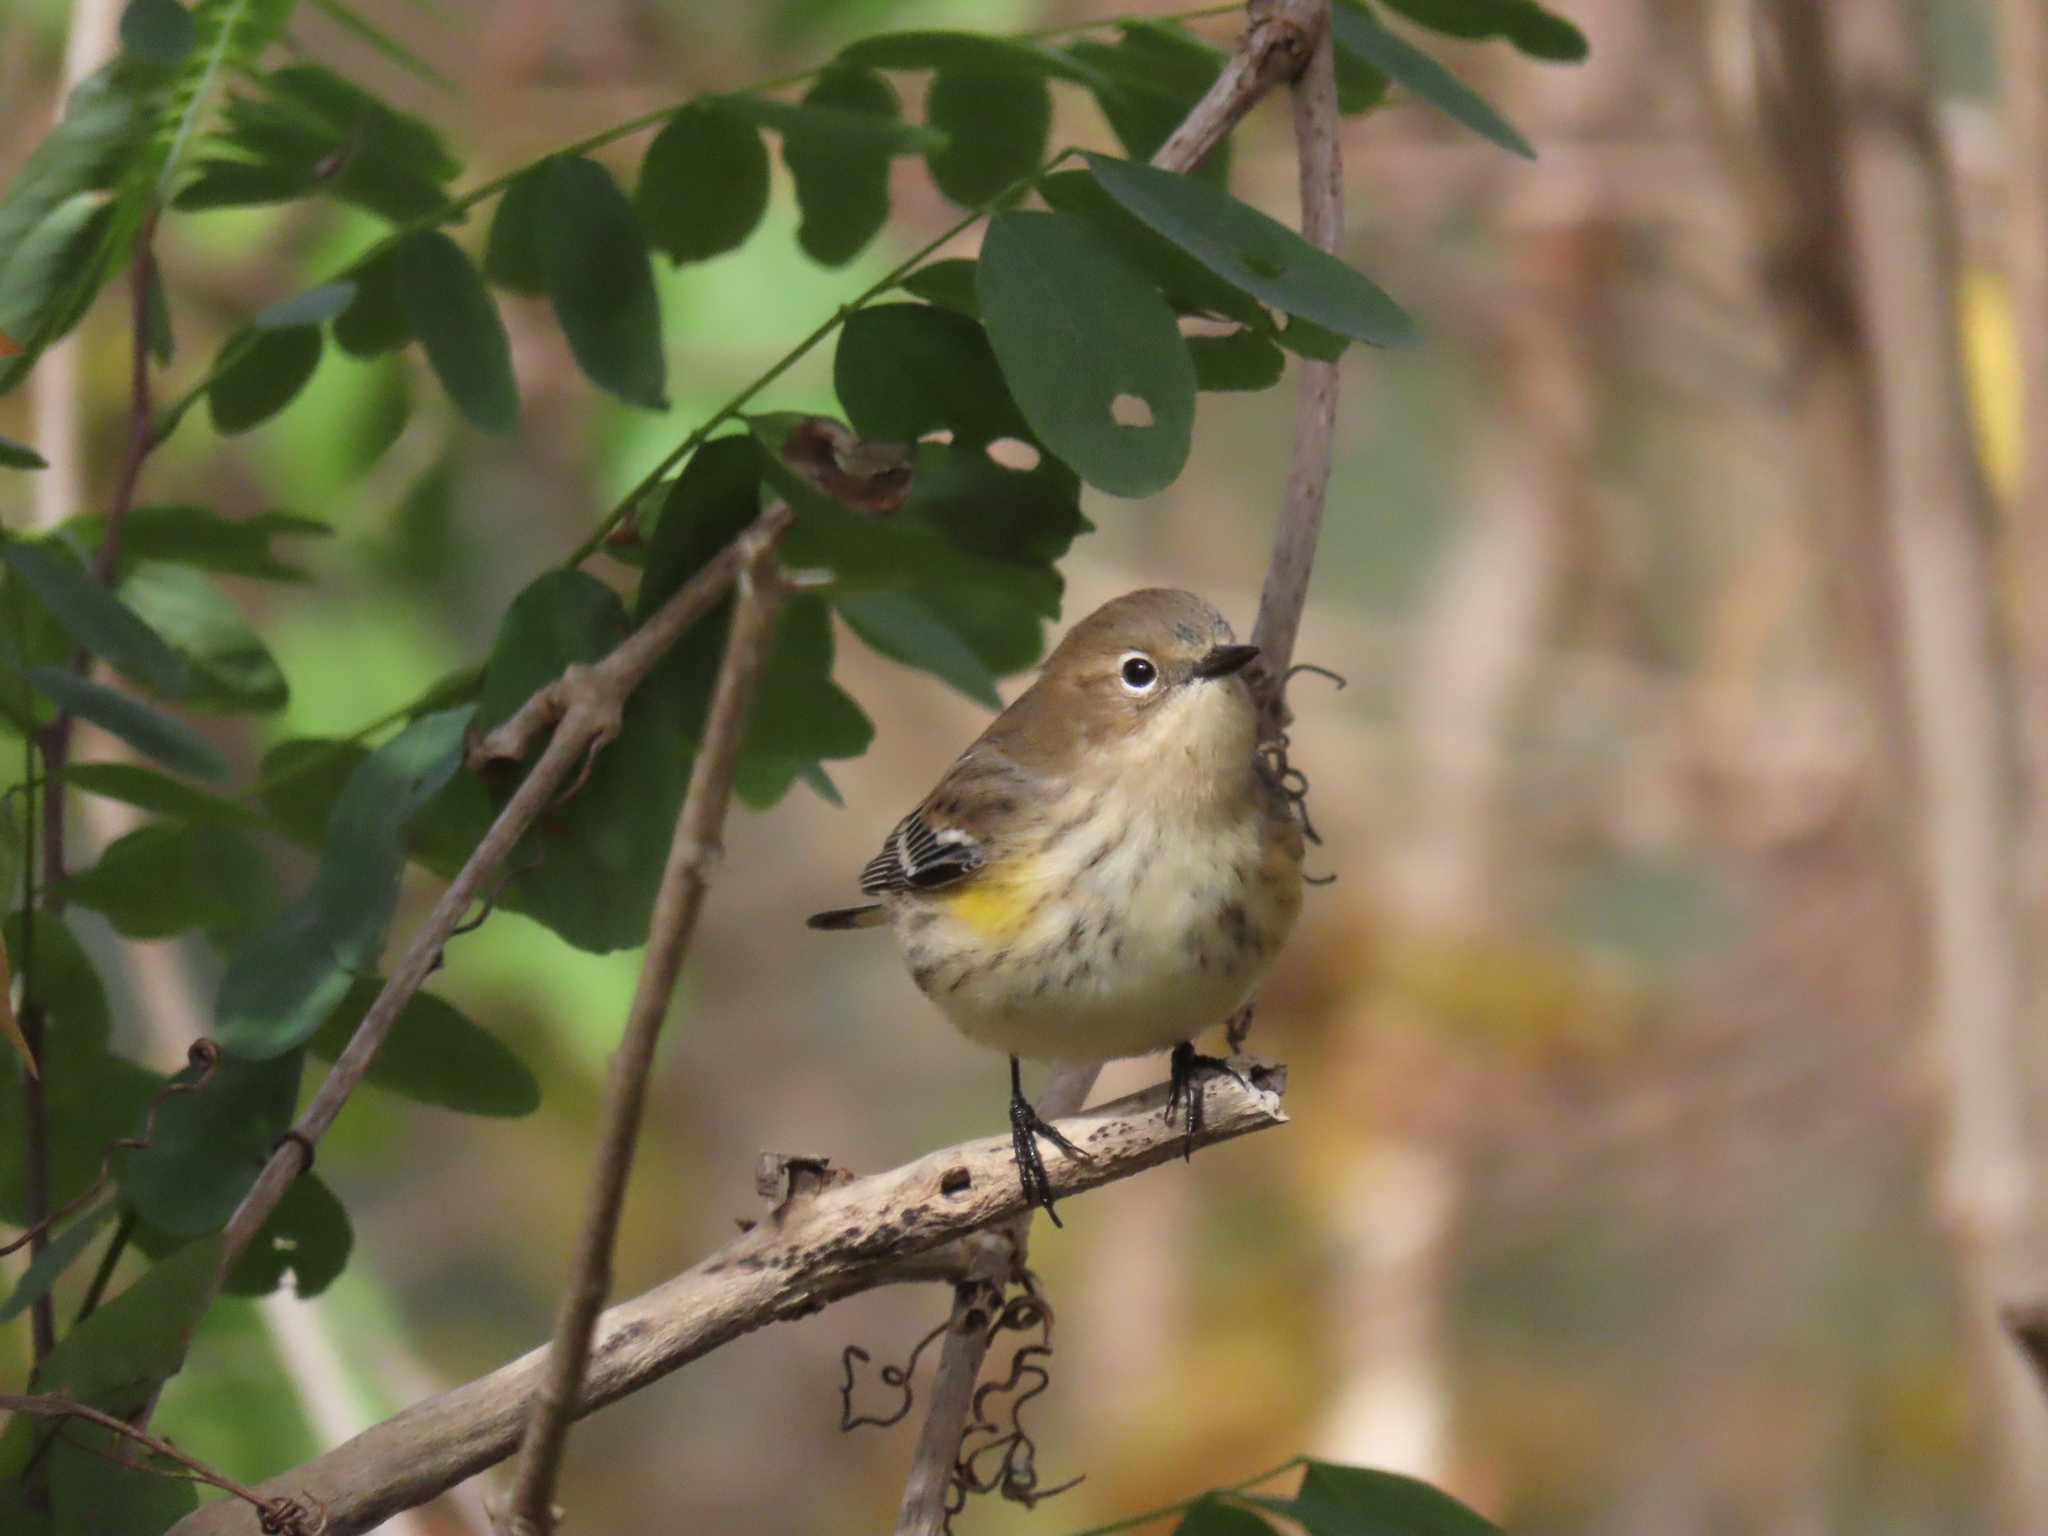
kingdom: Animalia
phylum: Chordata
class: Aves
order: Passeriformes
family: Parulidae
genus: Setophaga
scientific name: Setophaga coronata
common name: Myrtle warbler
